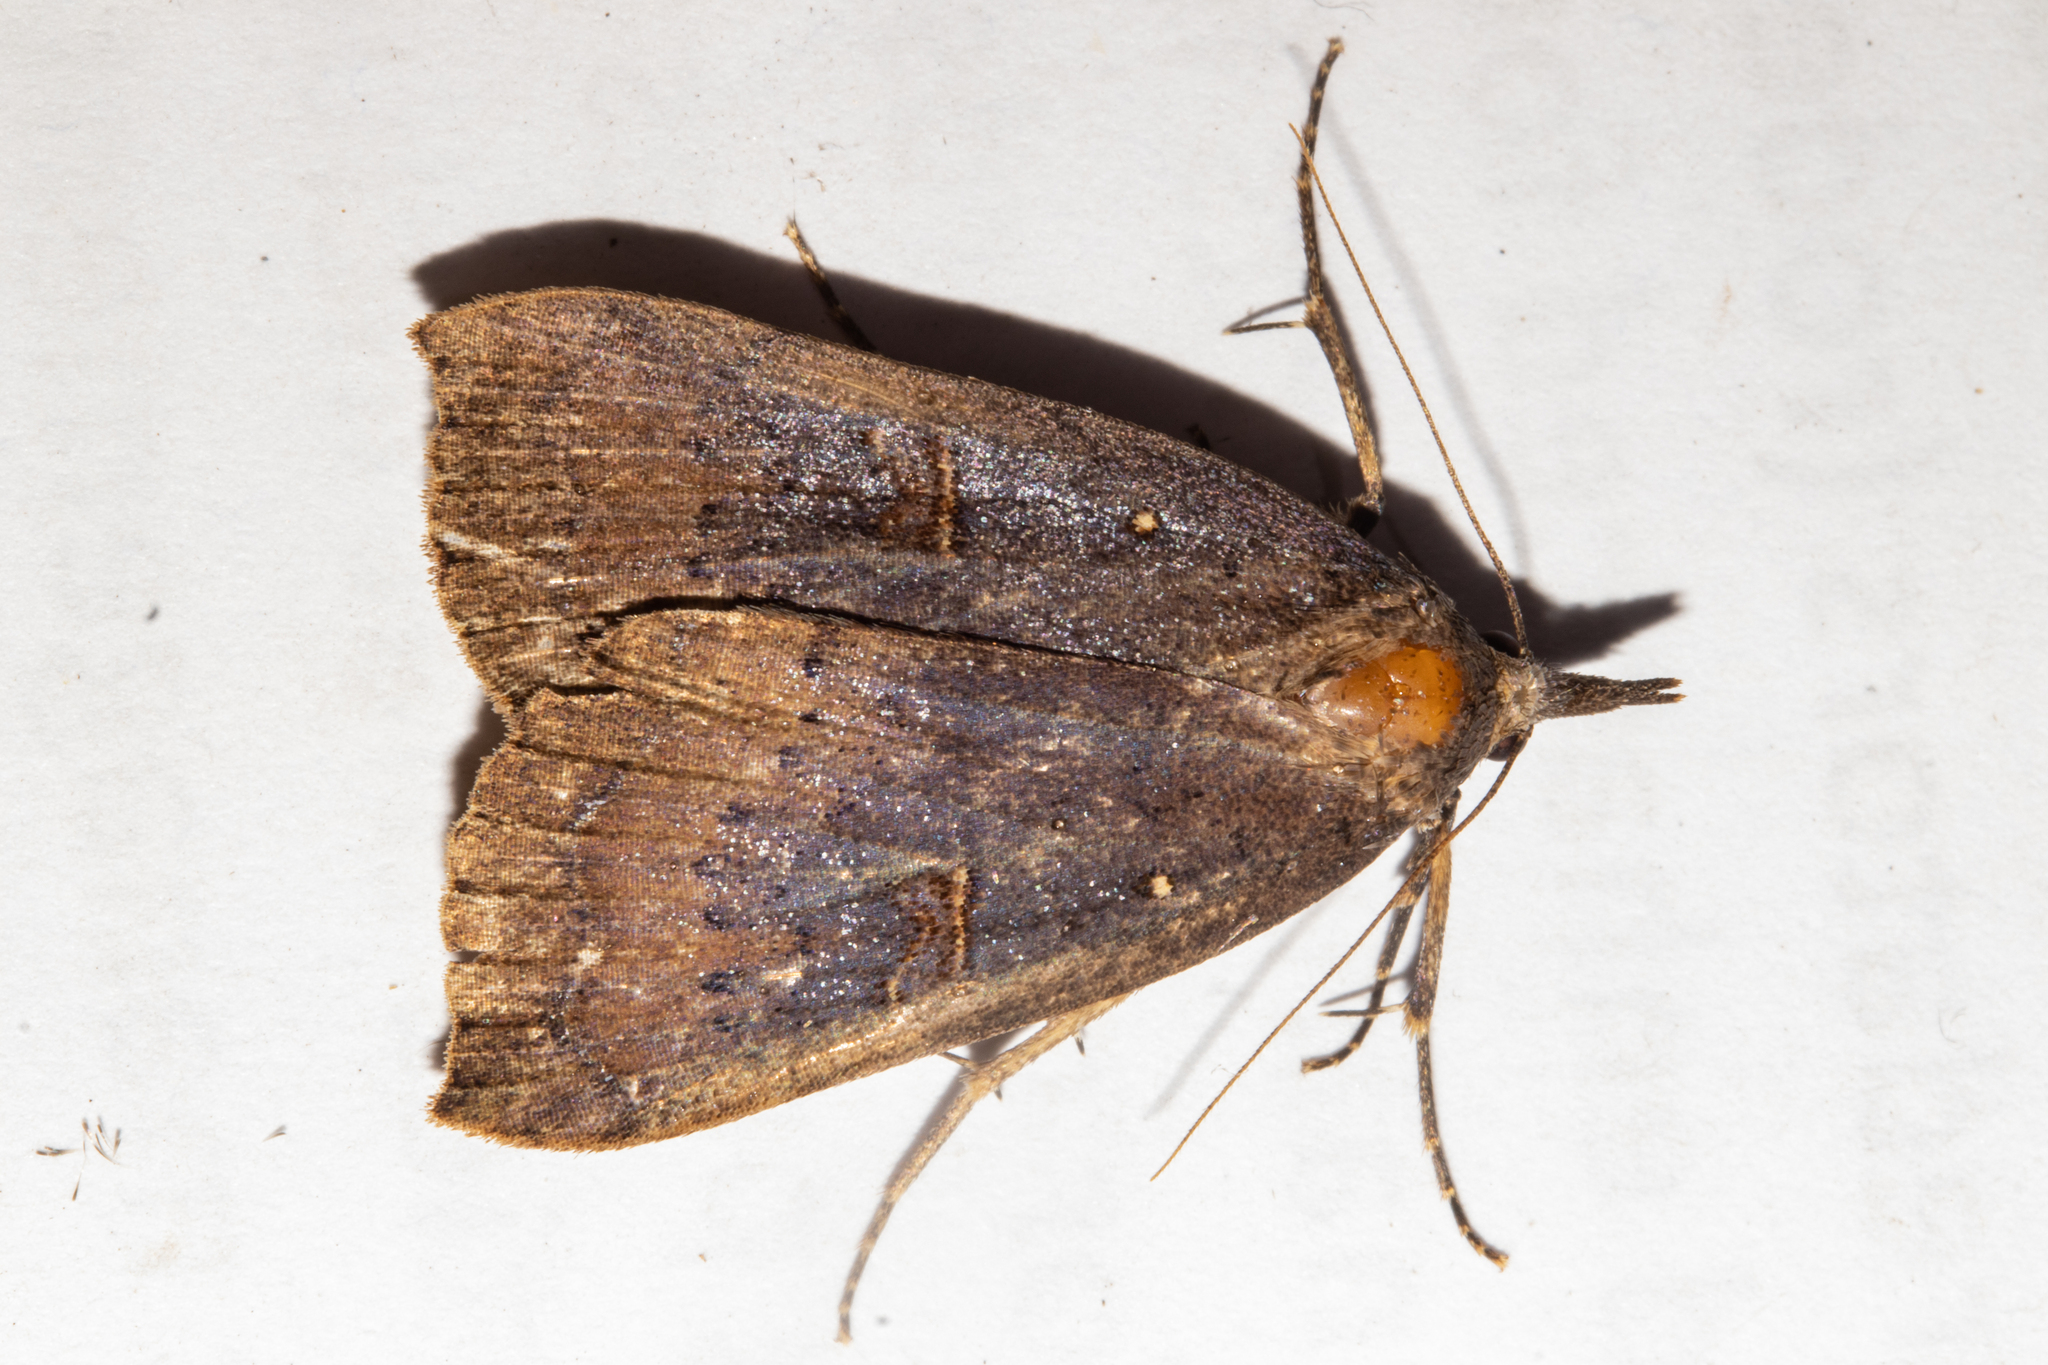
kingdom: Animalia
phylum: Arthropoda
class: Insecta
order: Lepidoptera
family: Erebidae
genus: Rhapsa
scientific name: Rhapsa scotosialis
